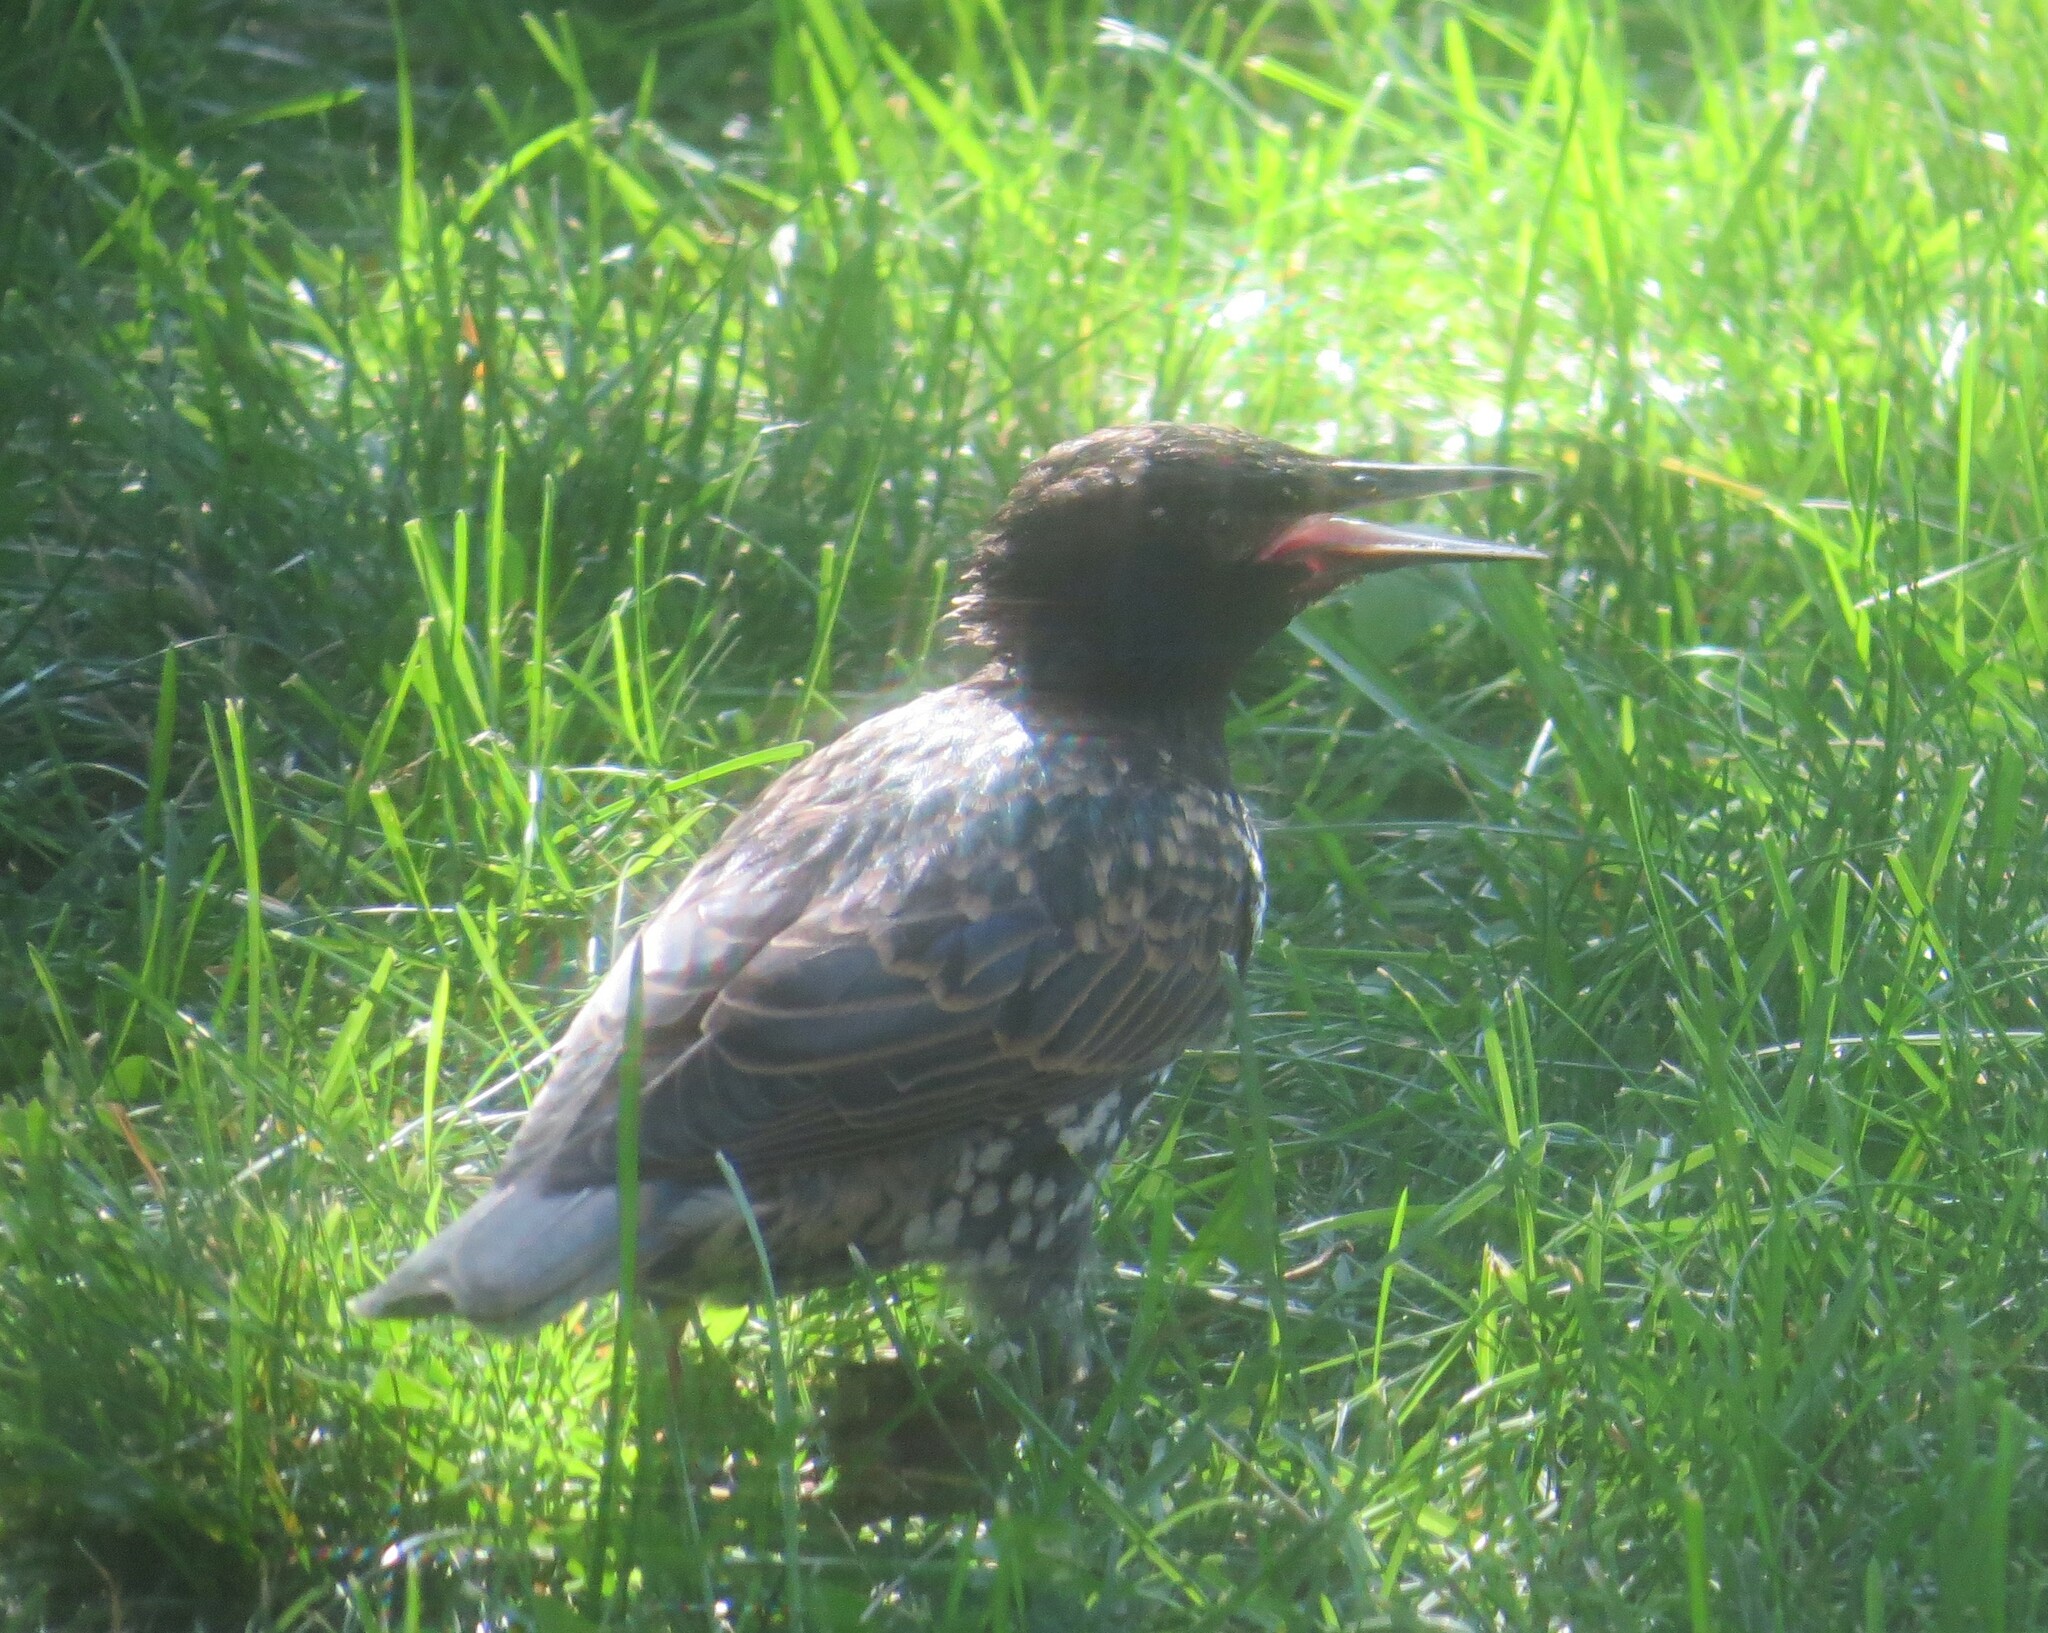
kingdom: Animalia
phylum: Chordata
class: Aves
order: Passeriformes
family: Sturnidae
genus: Sturnus
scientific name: Sturnus vulgaris
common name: Common starling
